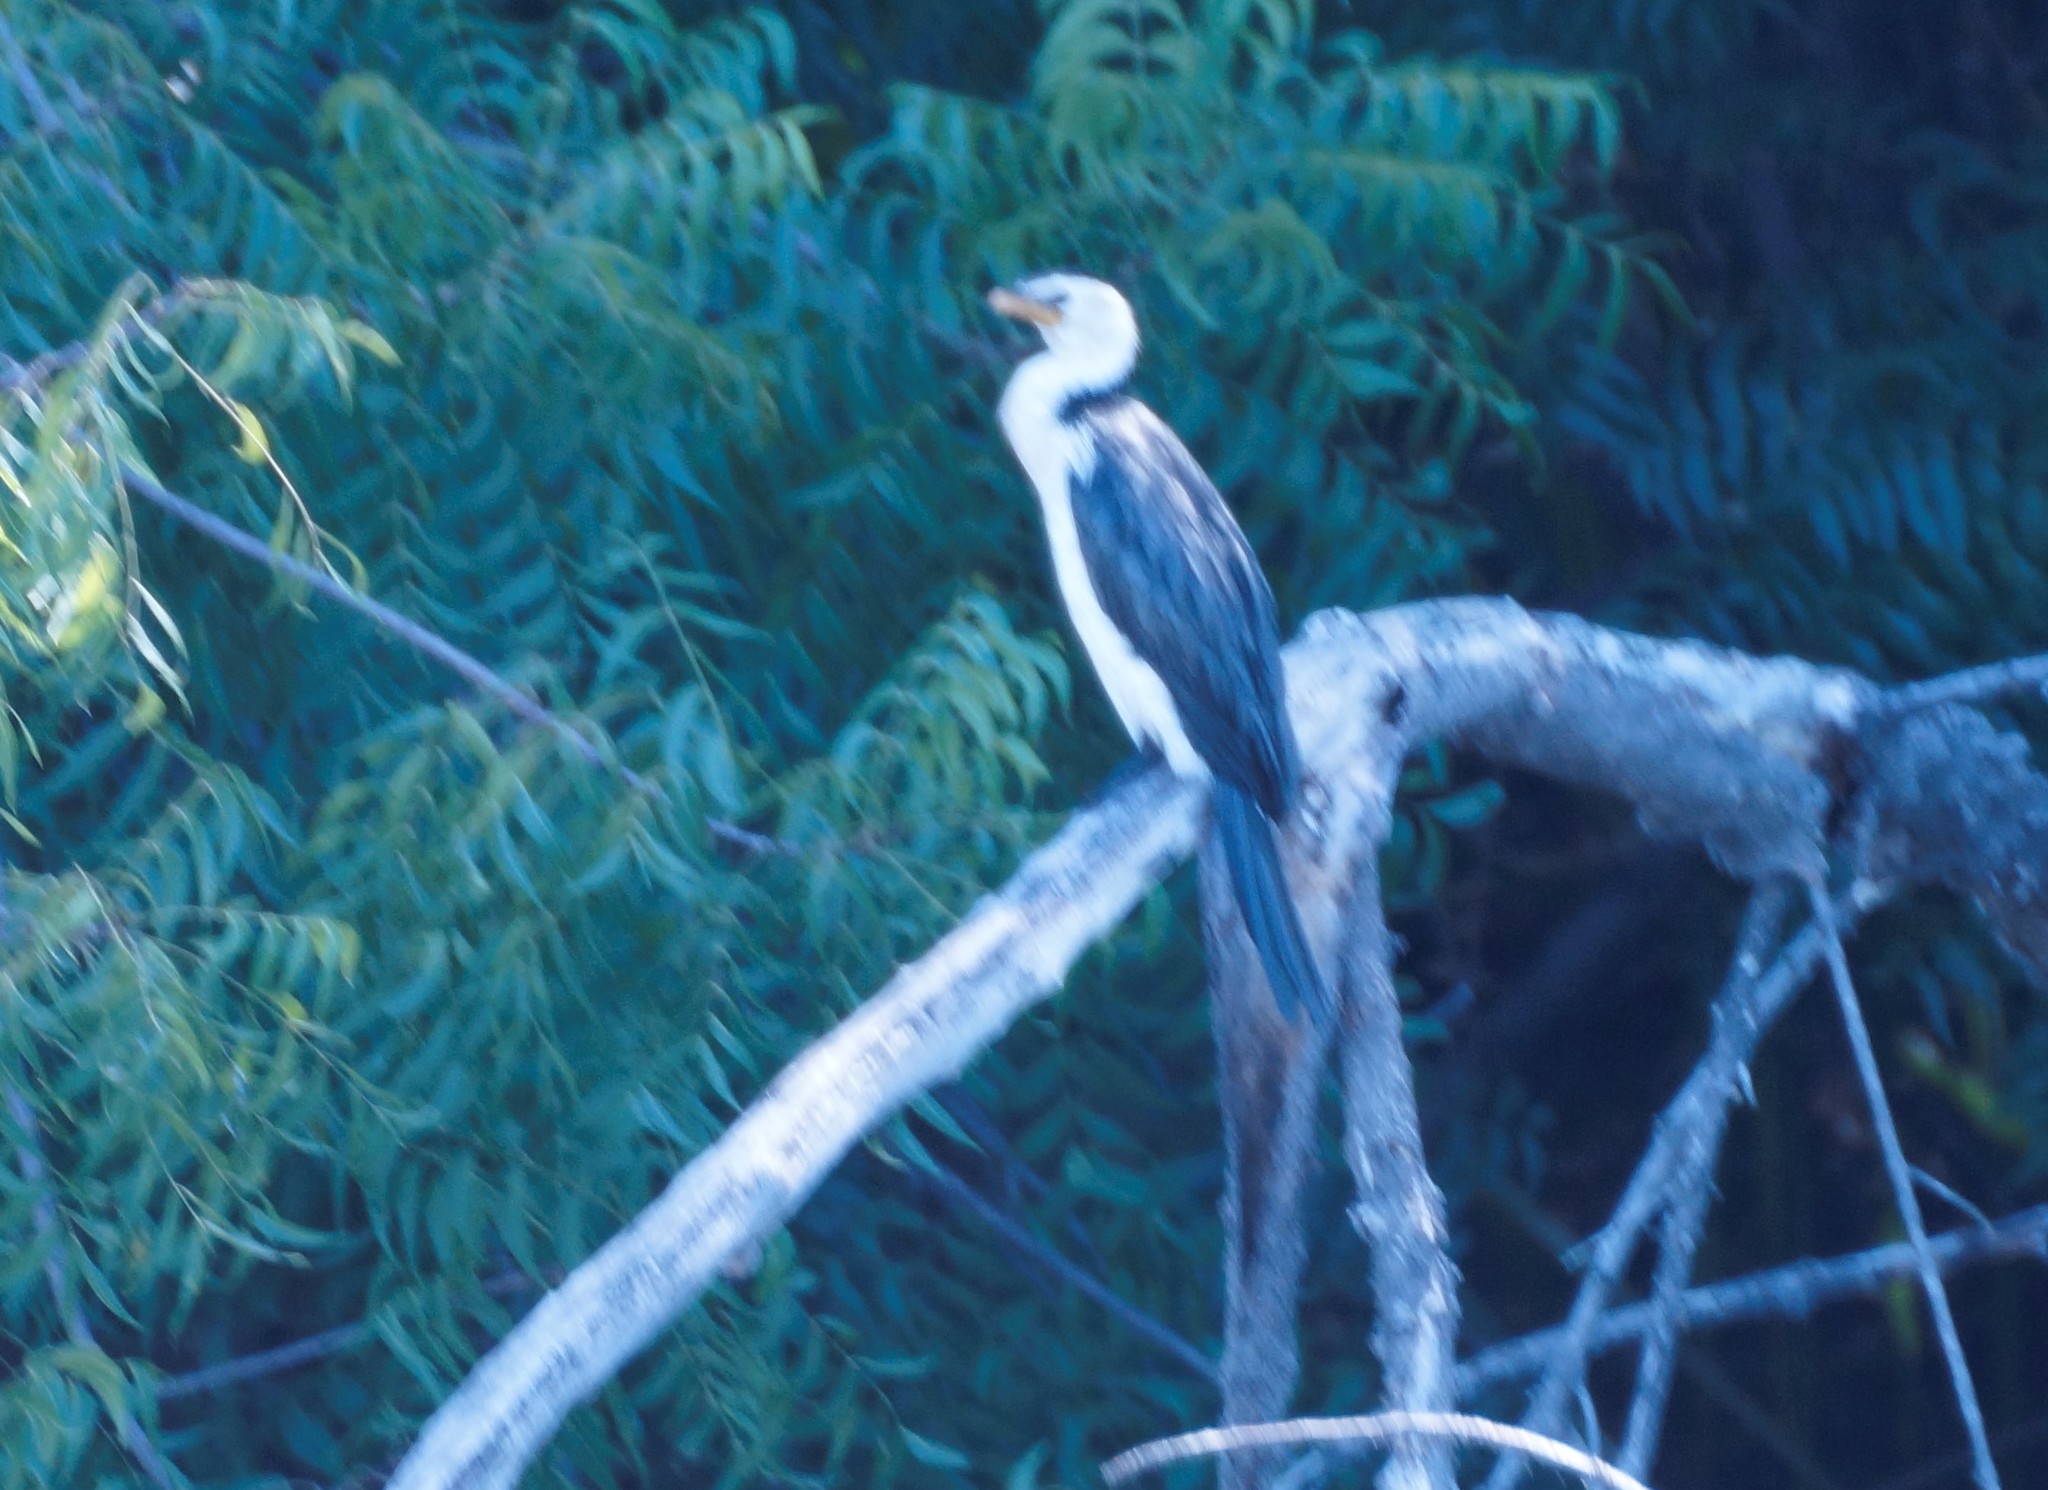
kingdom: Animalia
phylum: Chordata
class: Aves
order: Suliformes
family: Phalacrocoracidae
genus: Microcarbo
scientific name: Microcarbo melanoleucos
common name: Little pied cormorant
